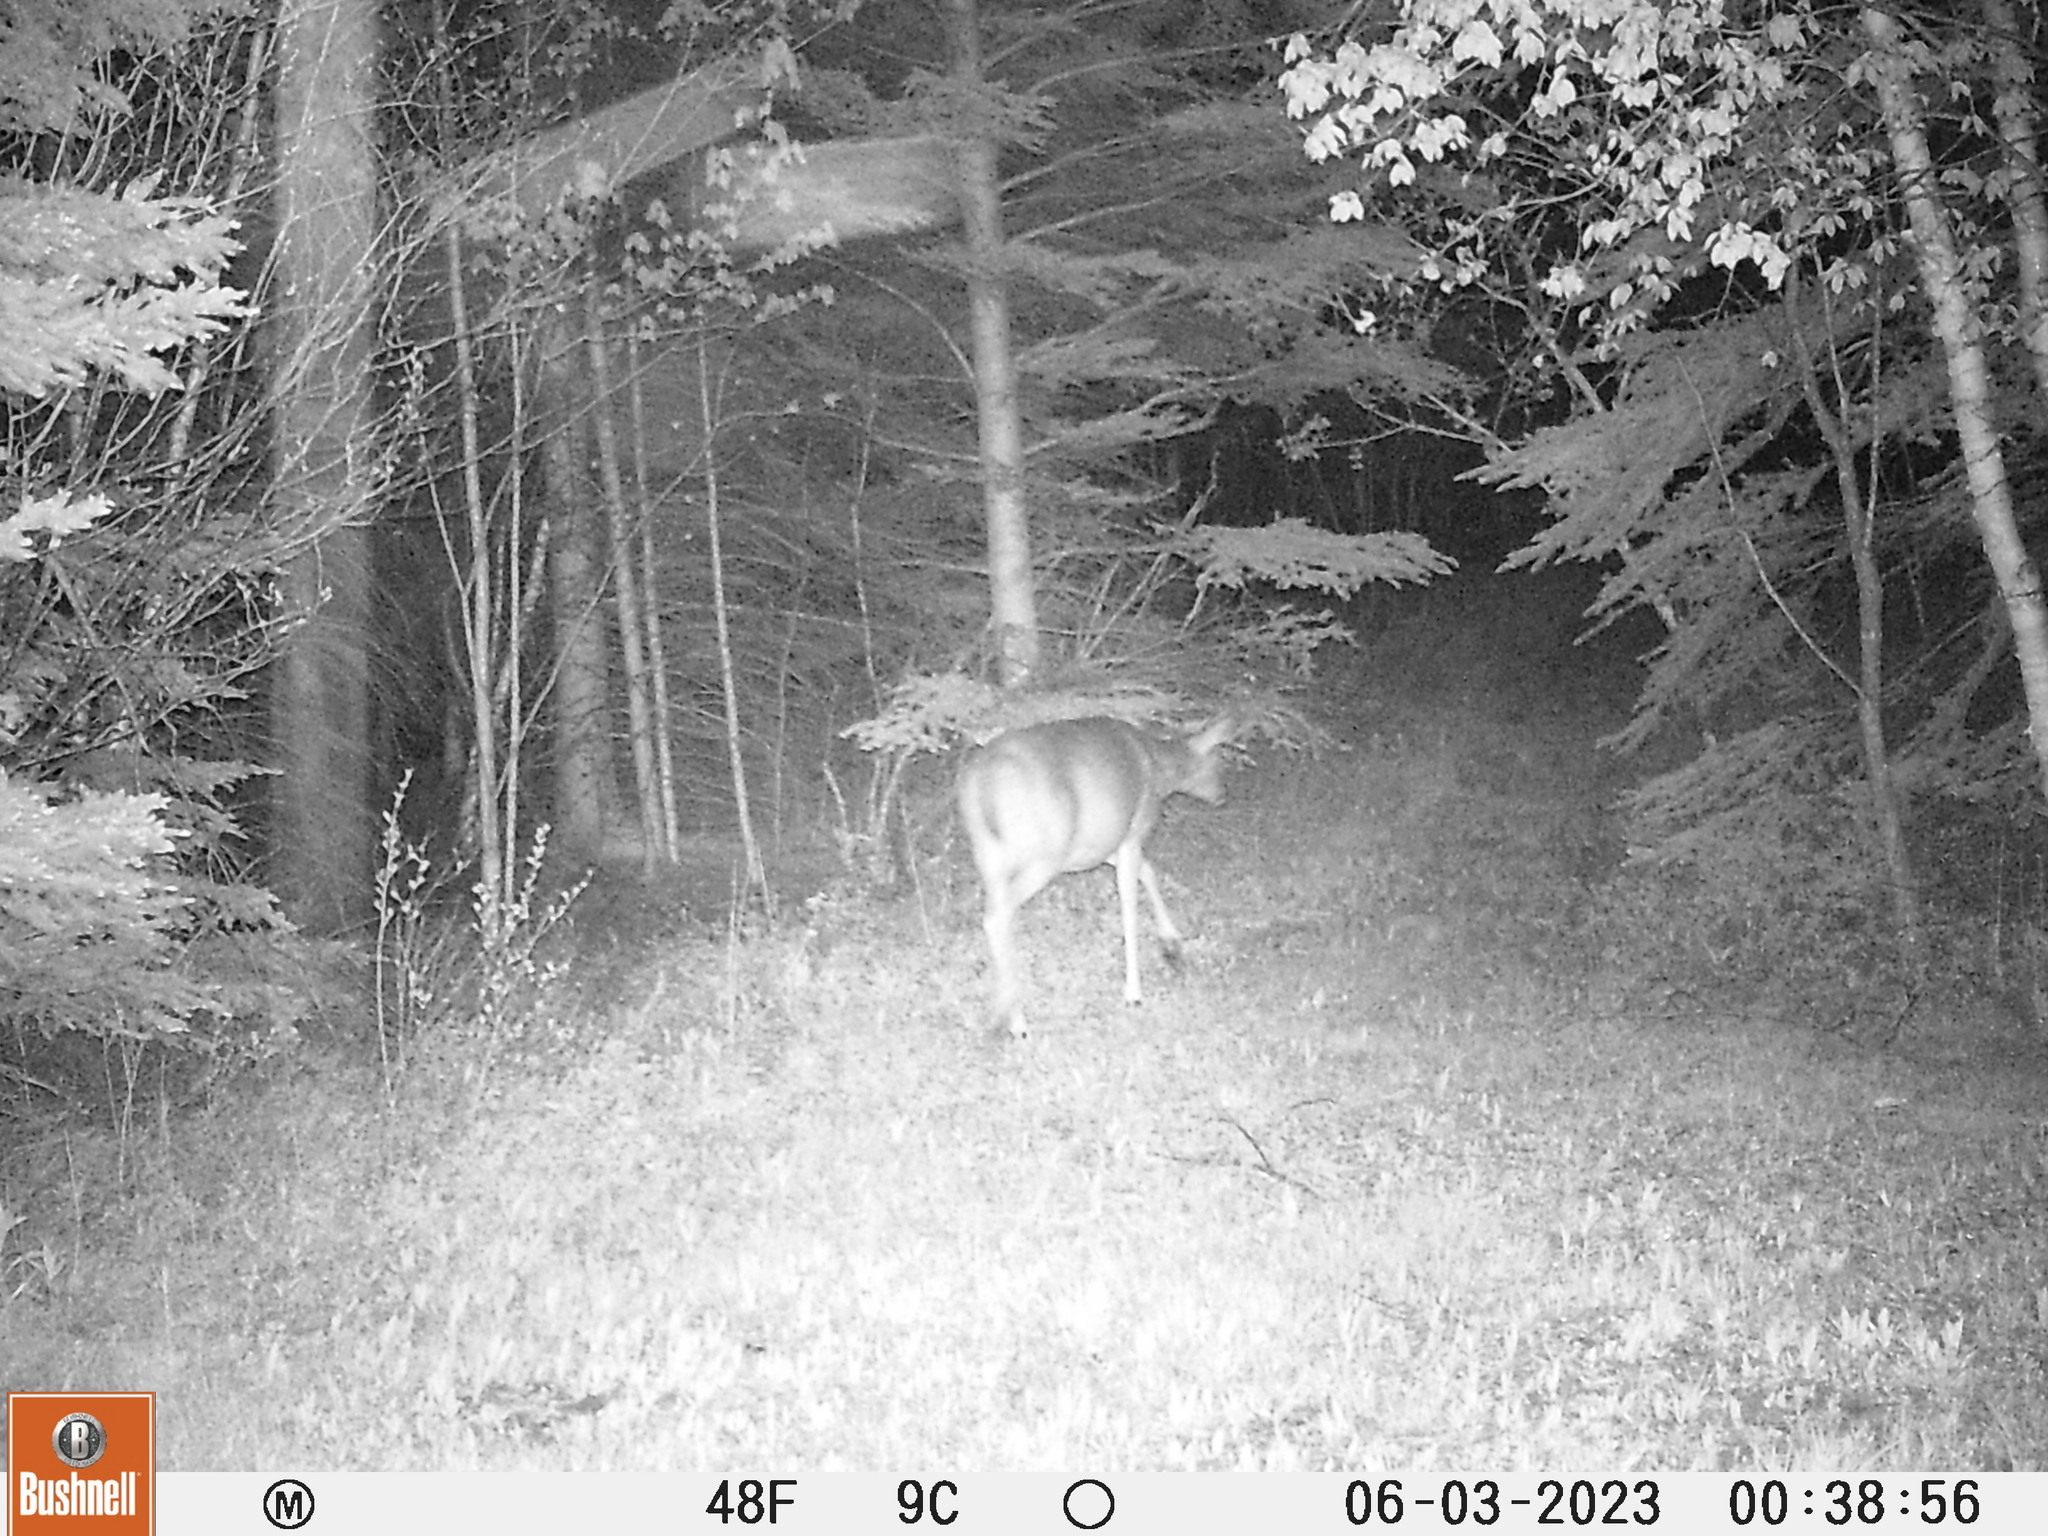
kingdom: Animalia
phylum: Chordata
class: Mammalia
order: Artiodactyla
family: Cervidae
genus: Odocoileus
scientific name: Odocoileus virginianus
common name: White-tailed deer
